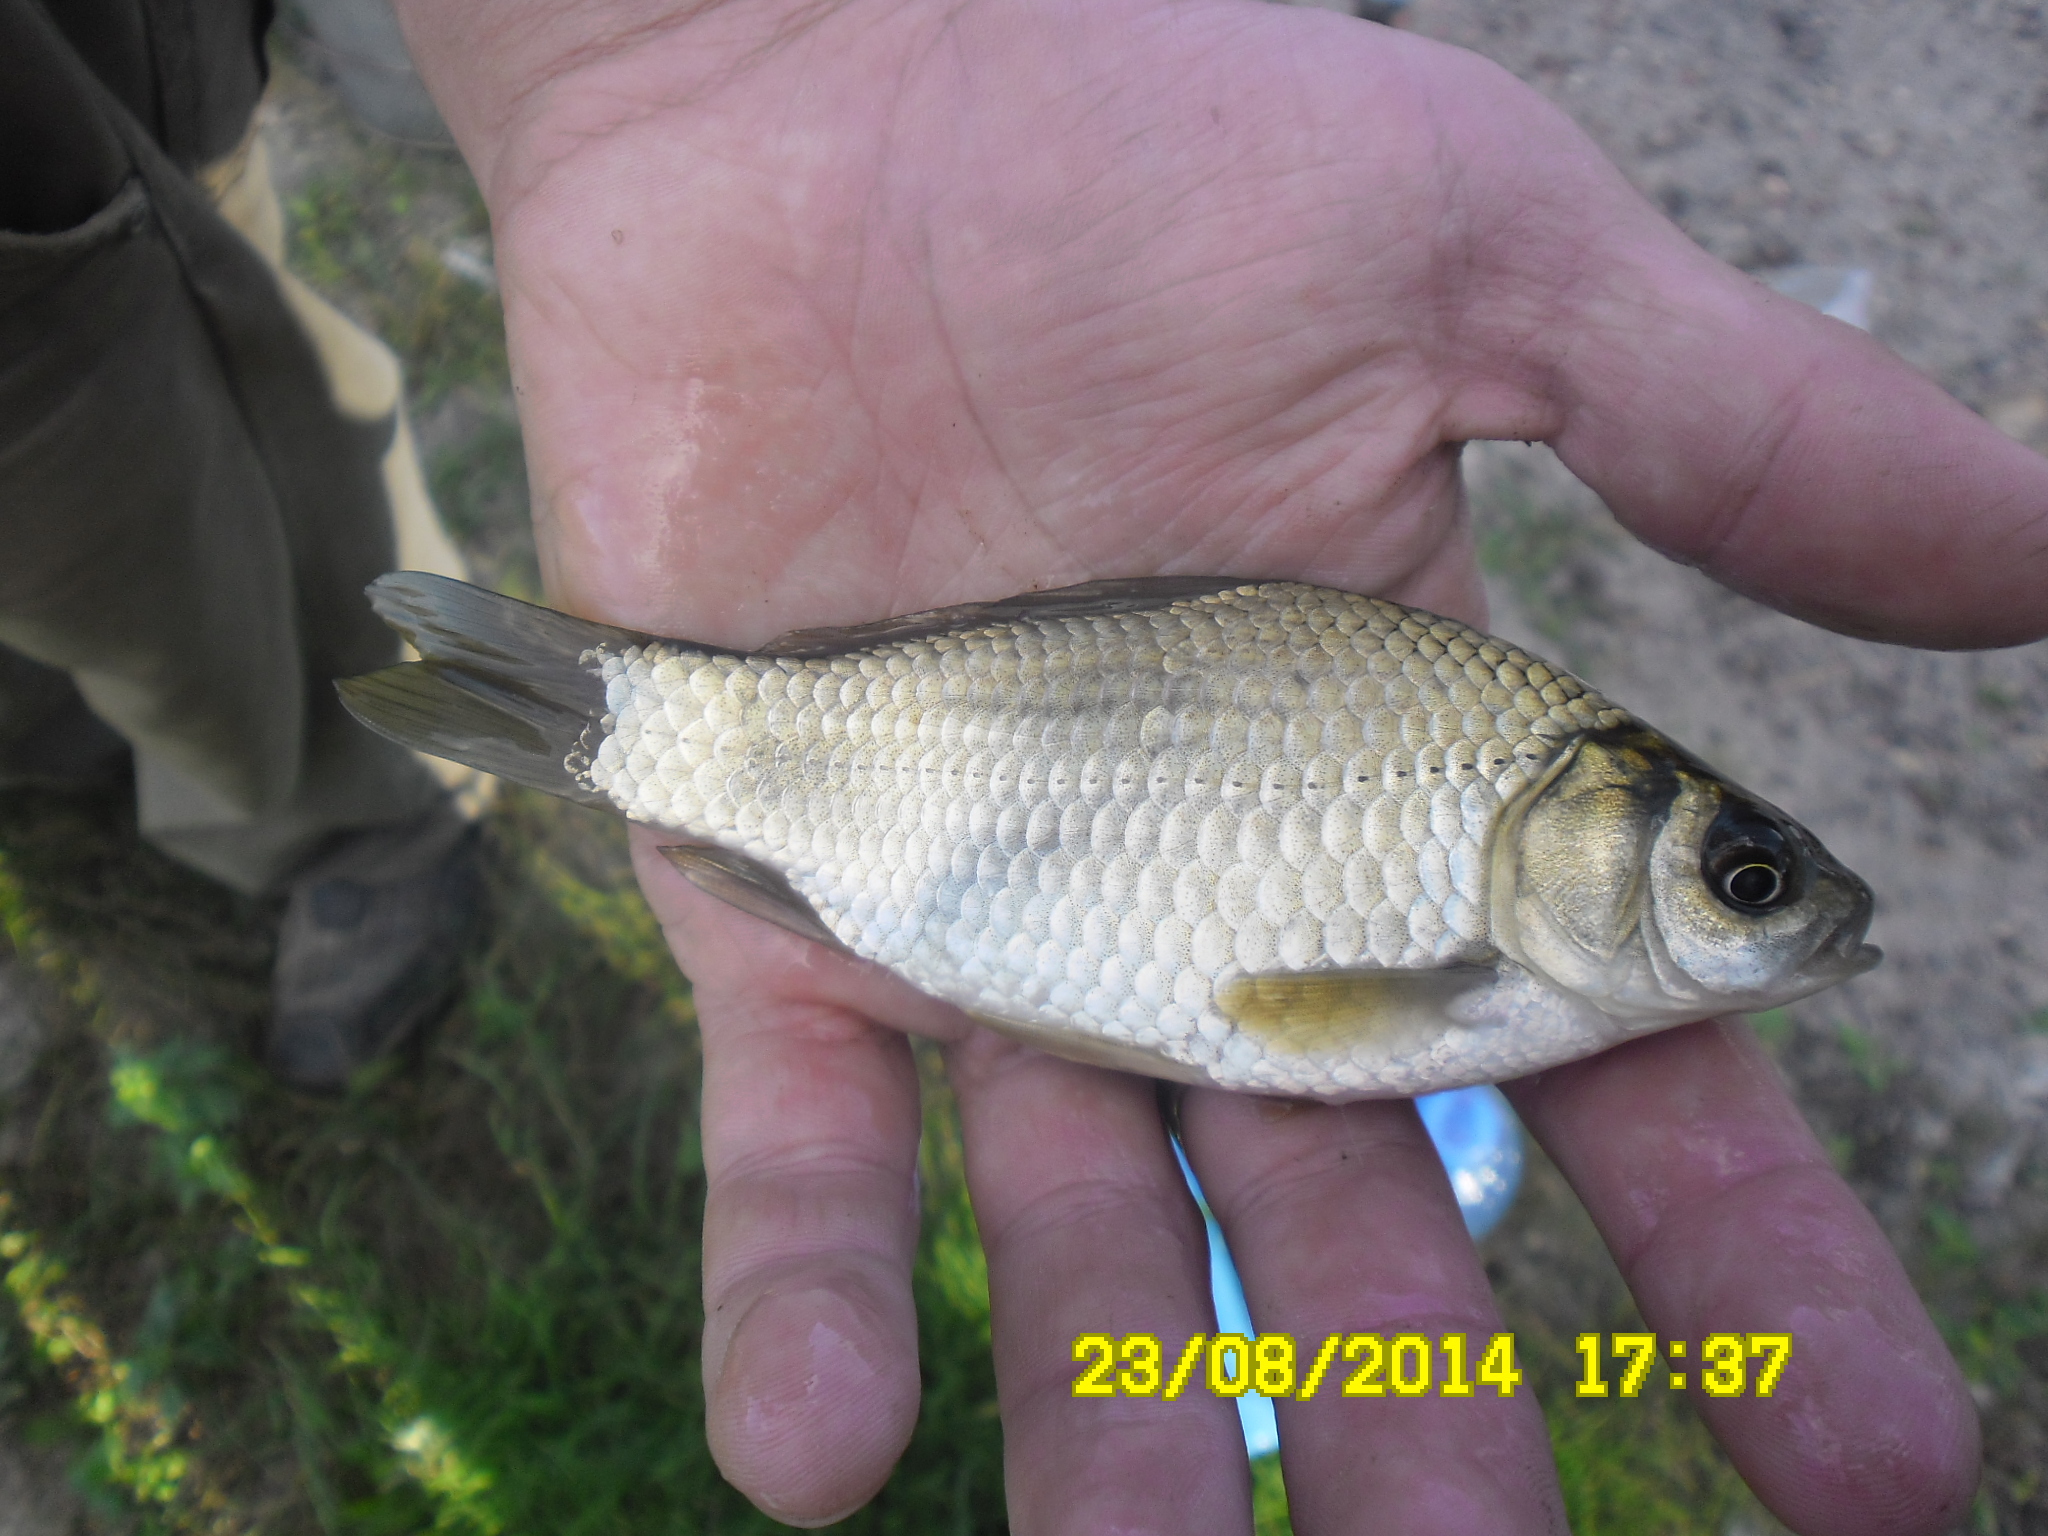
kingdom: Animalia
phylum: Chordata
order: Cypriniformes
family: Cyprinidae
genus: Carassius
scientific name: Carassius gibelio
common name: Prussian carp
